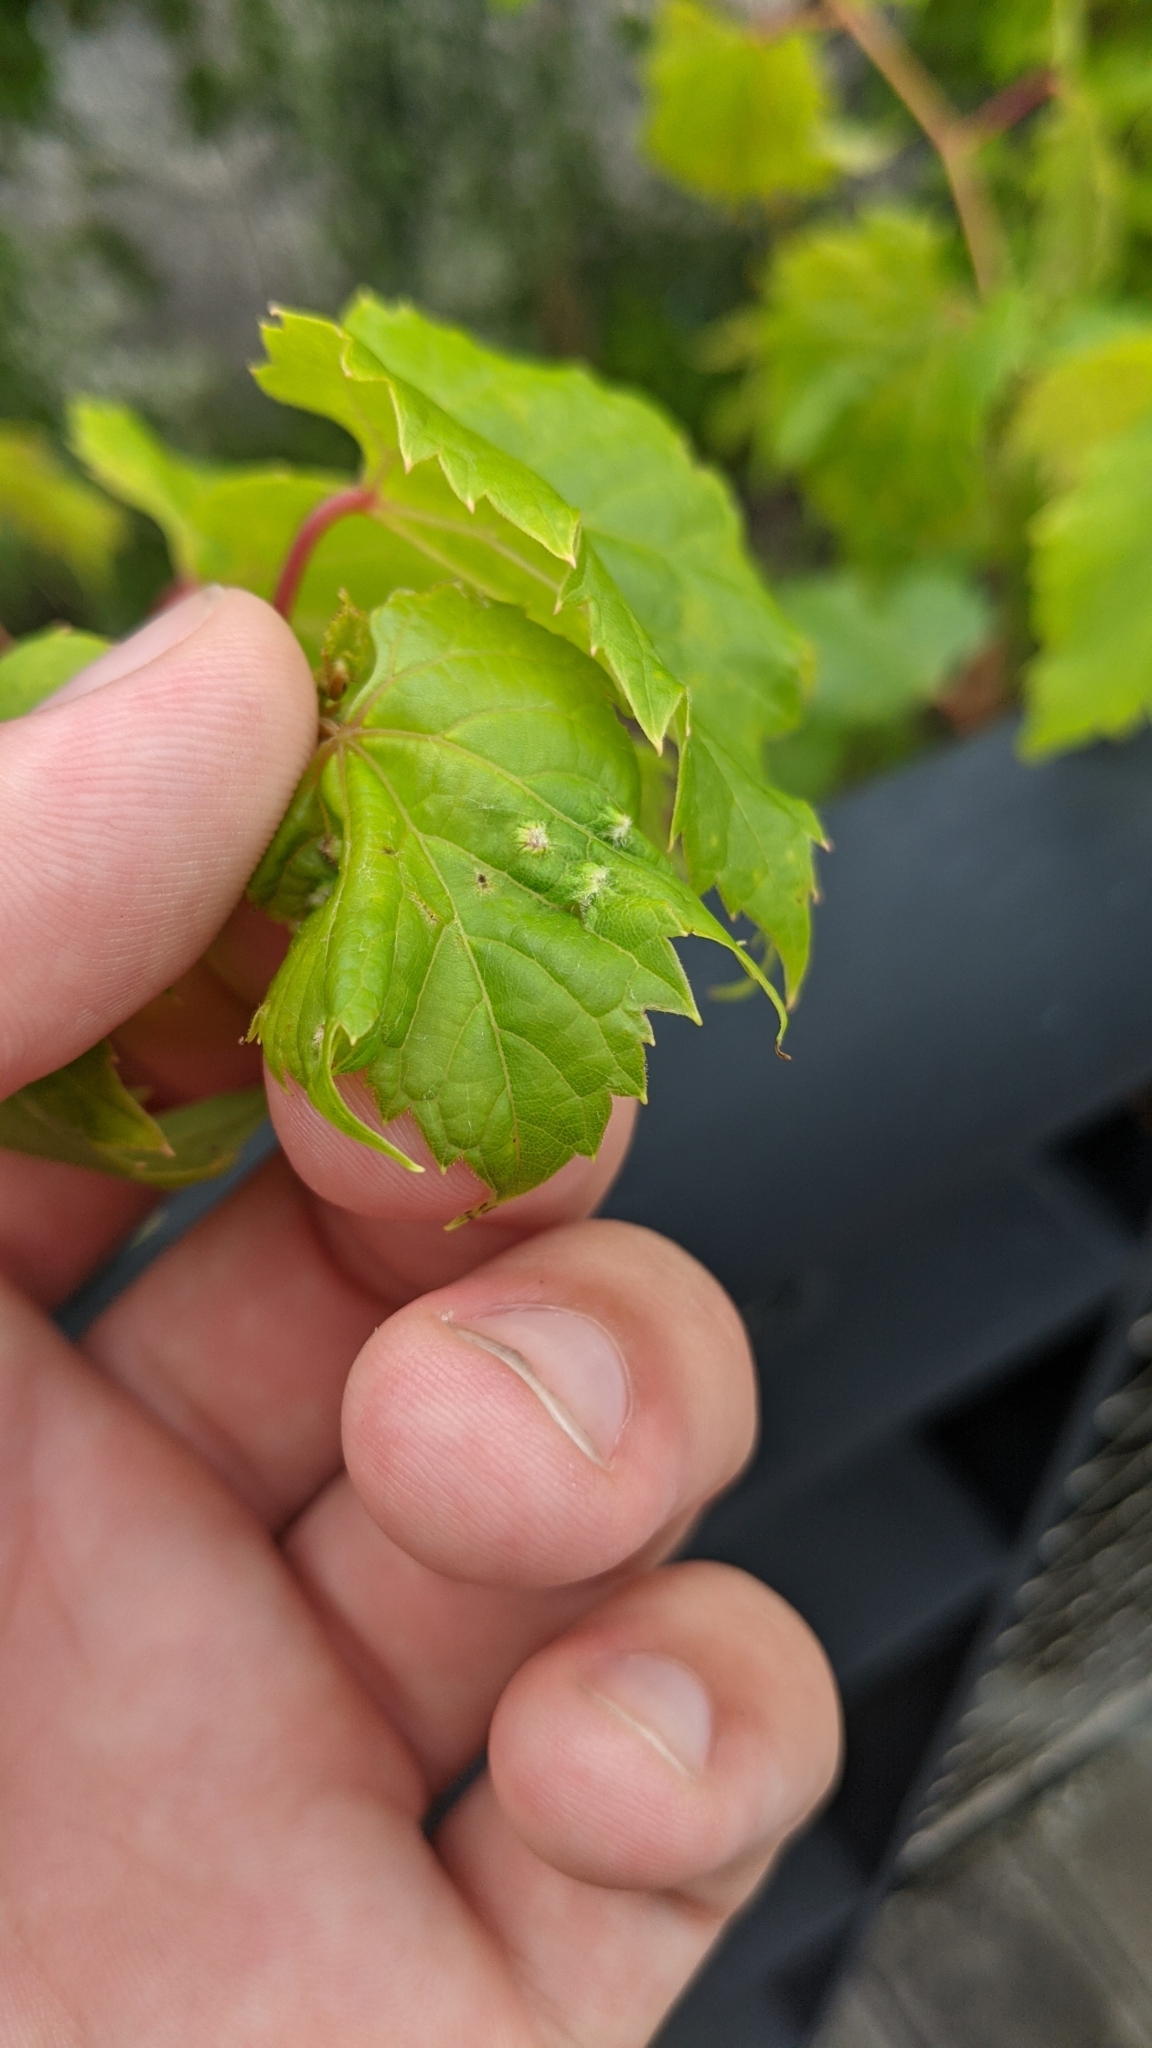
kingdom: Animalia
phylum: Arthropoda
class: Insecta
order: Hemiptera
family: Phylloxeridae
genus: Daktulosphaira
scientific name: Daktulosphaira vitifoliae
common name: Grape phylloxera
